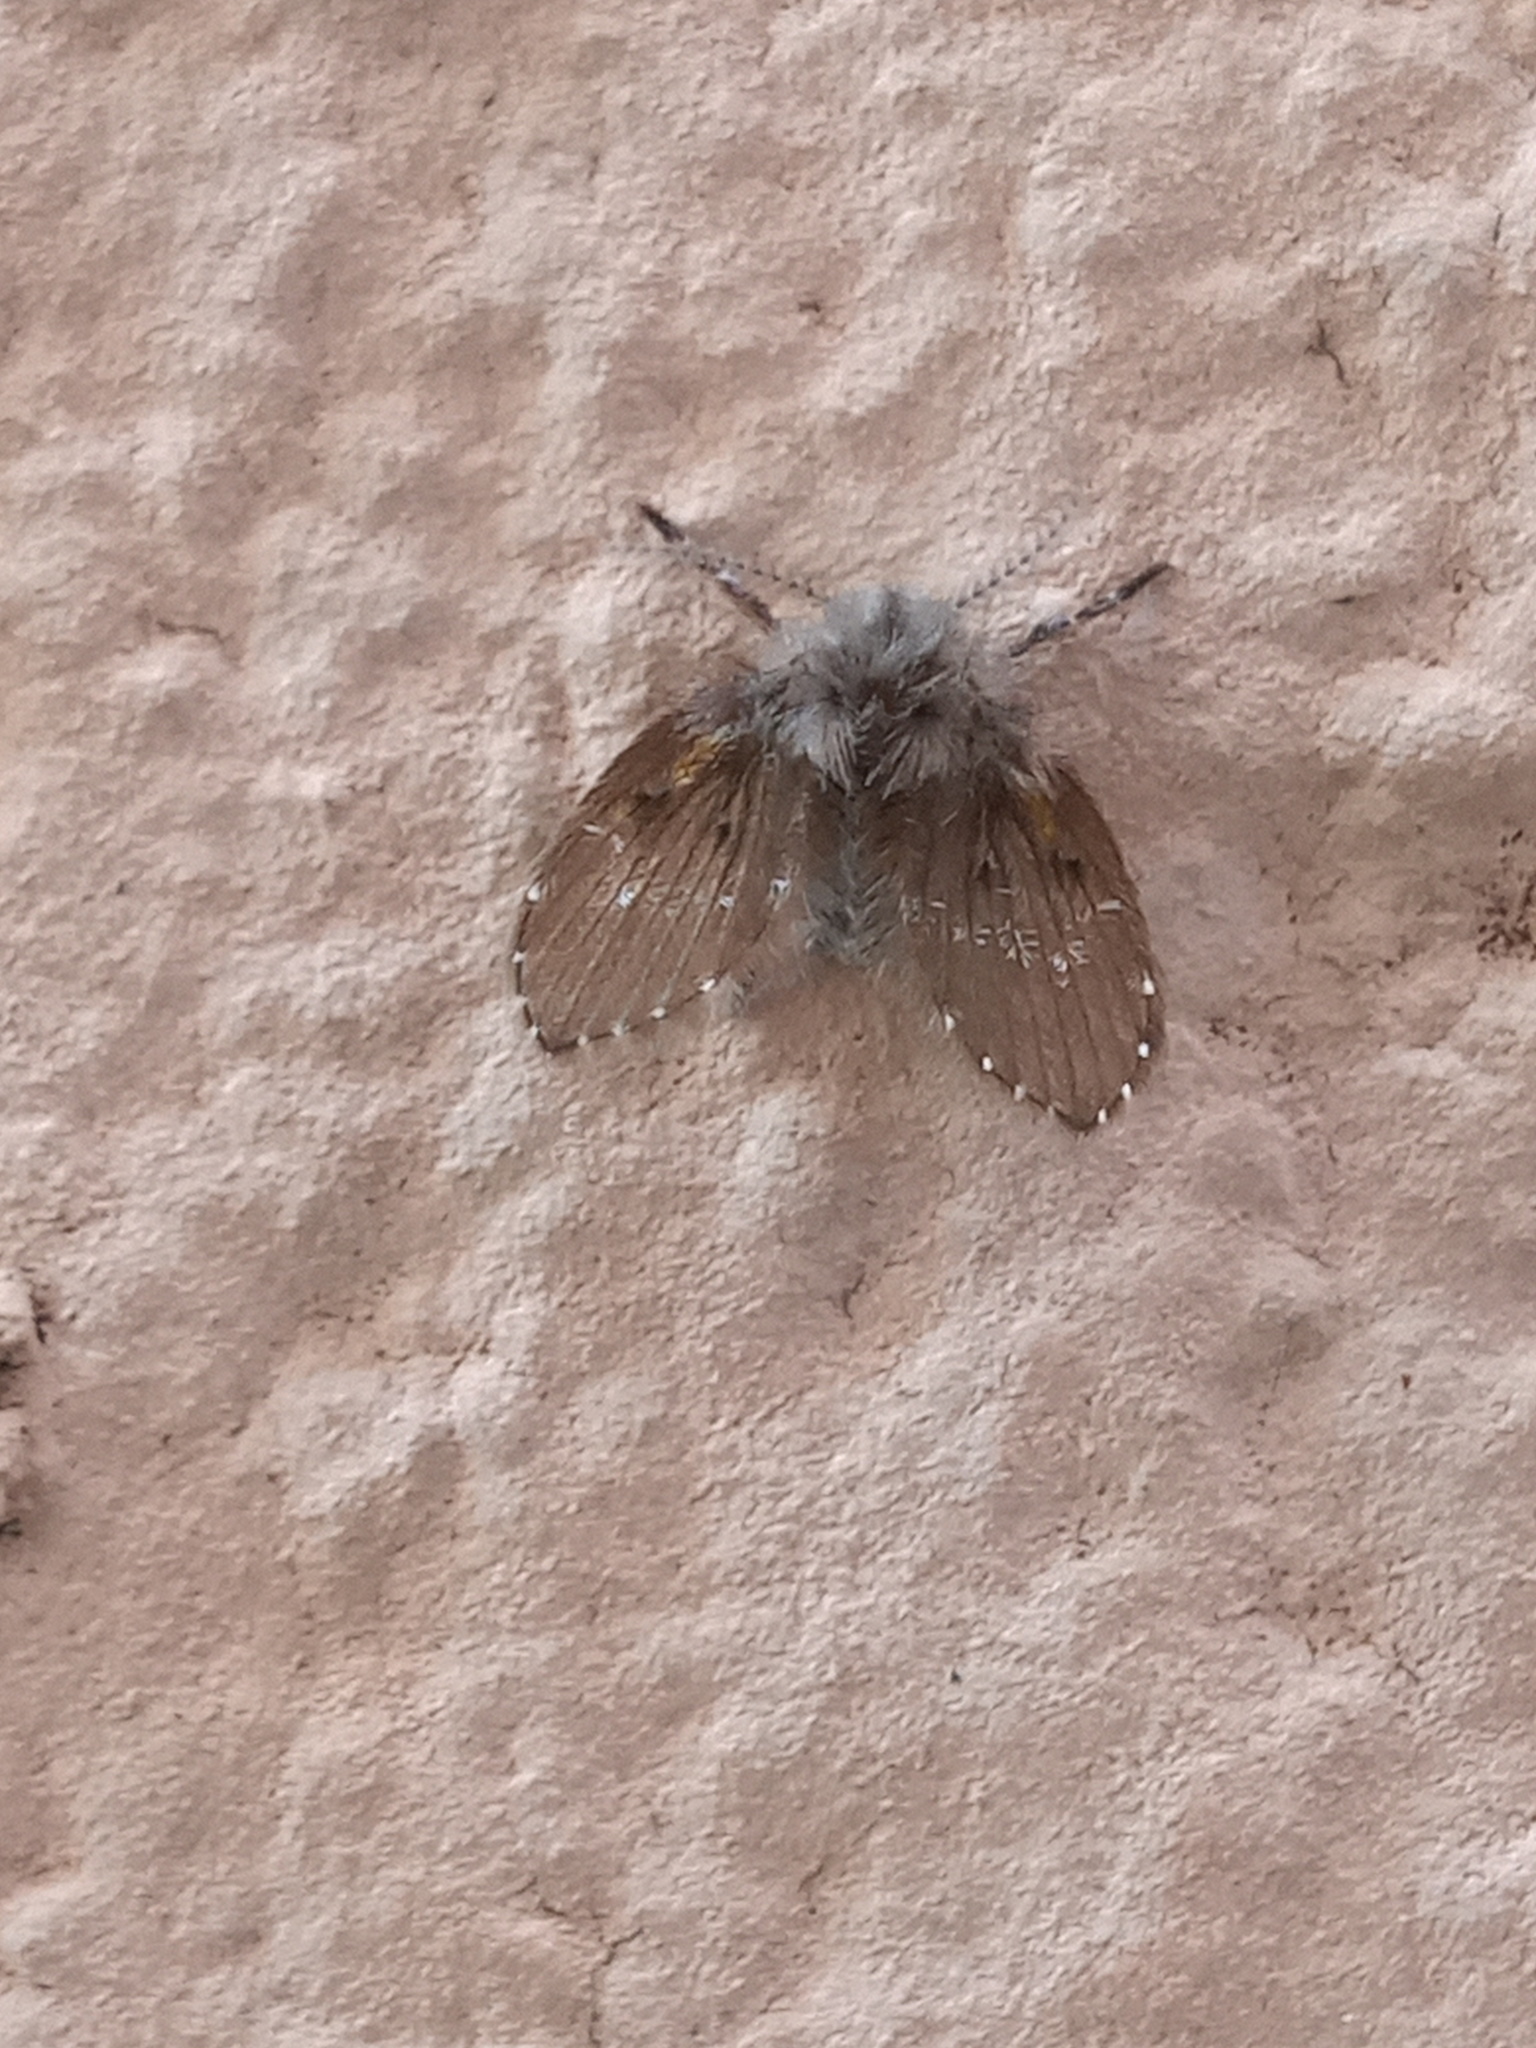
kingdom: Animalia
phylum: Arthropoda
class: Insecta
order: Diptera
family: Psychodidae
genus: Clogmia
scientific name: Clogmia albipunctatus
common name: White-spotted moth fly
